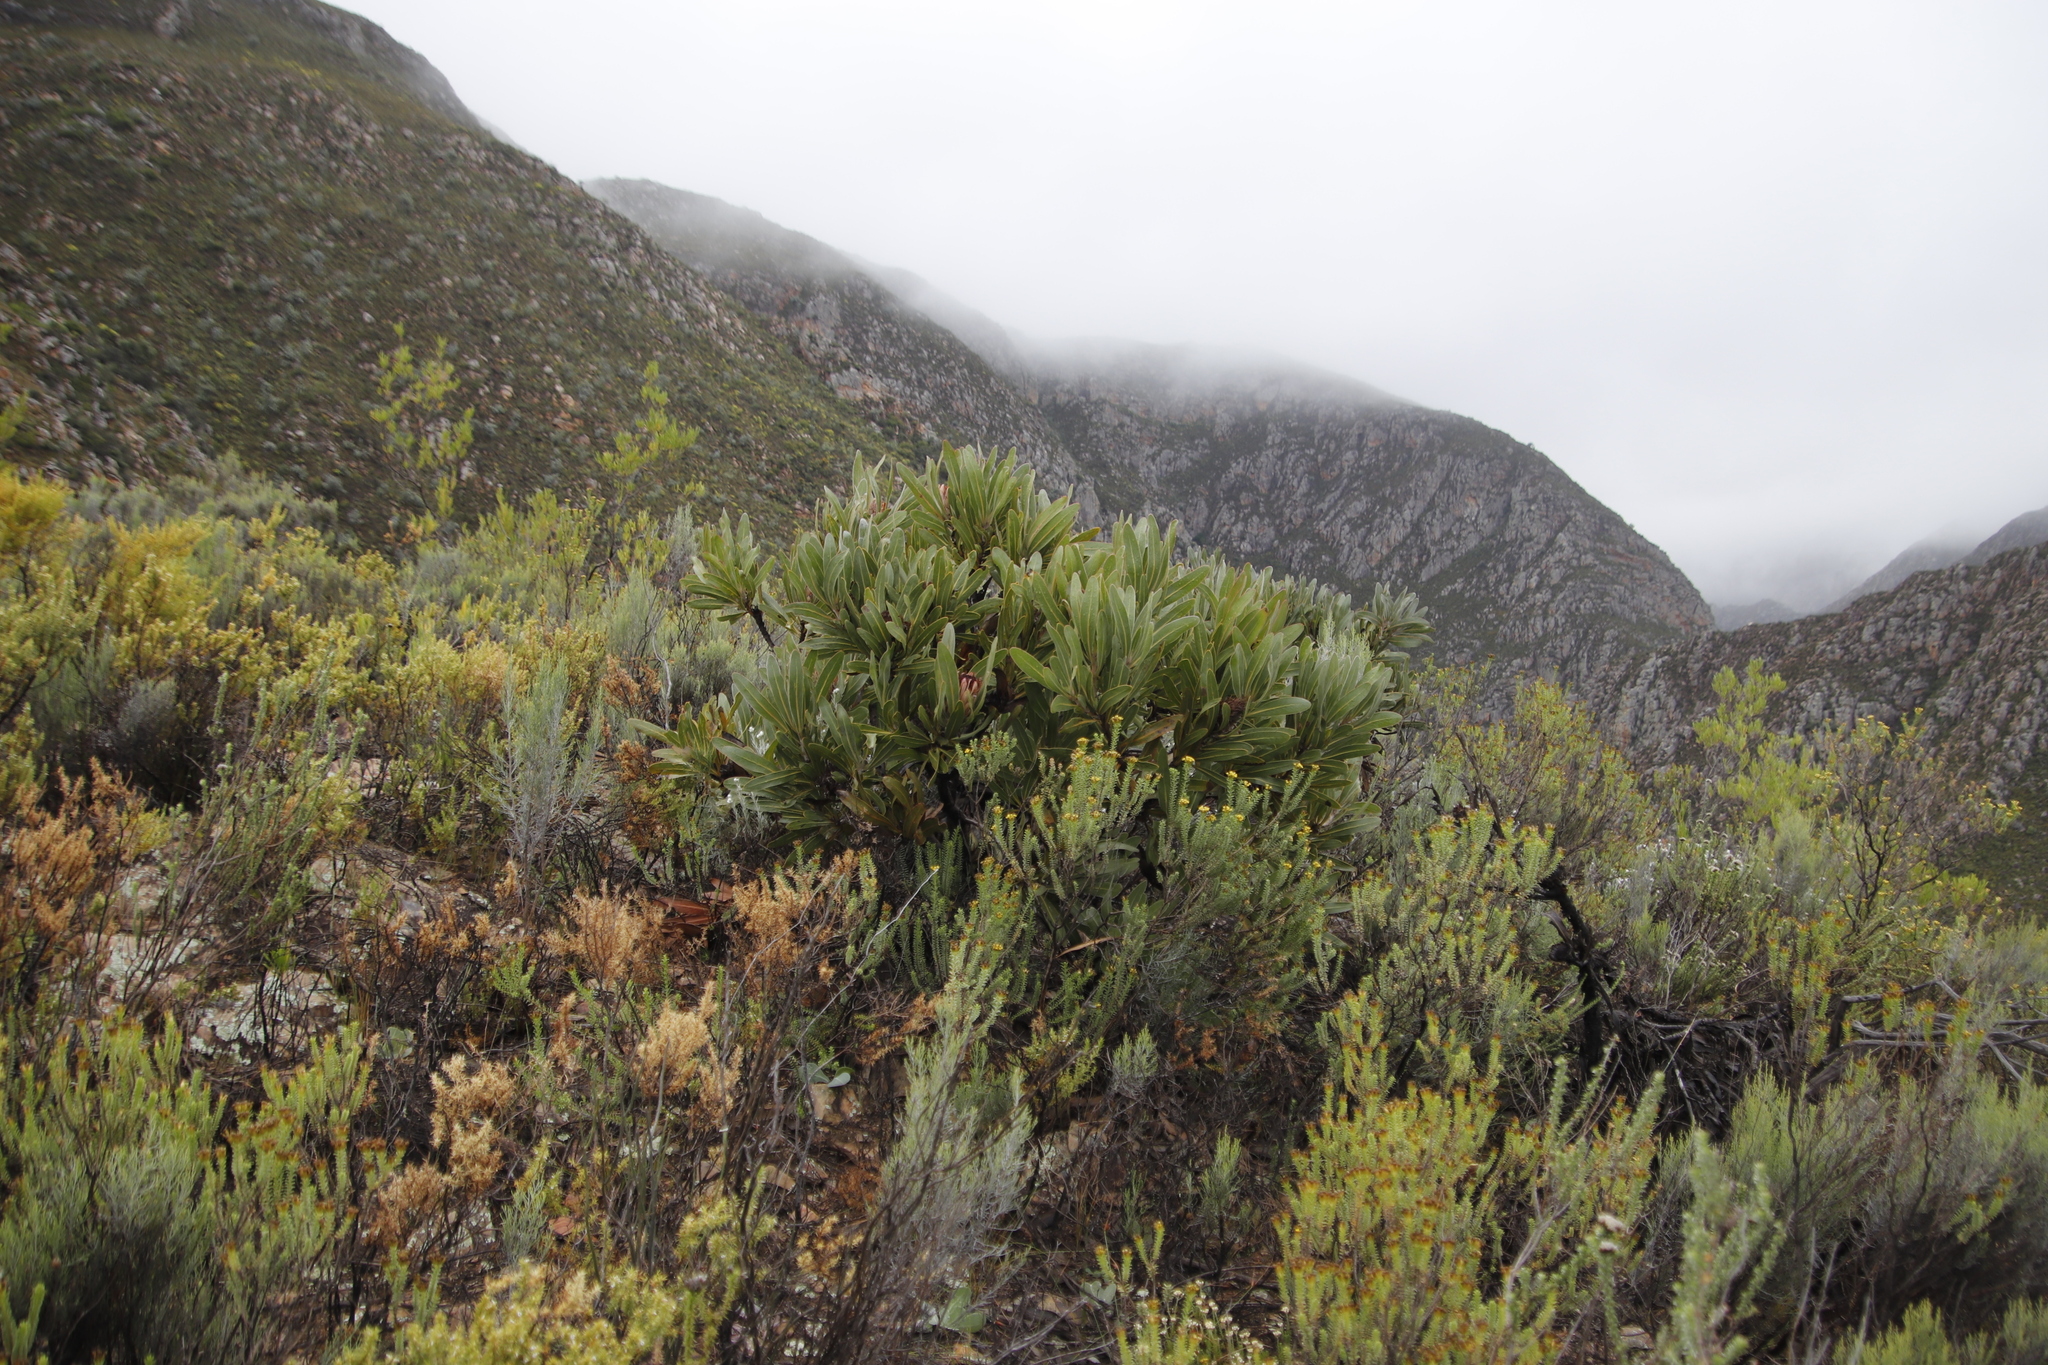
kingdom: Plantae
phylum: Tracheophyta
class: Magnoliopsida
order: Proteales
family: Proteaceae
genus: Protea
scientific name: Protea lorifolia
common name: Strap-leaved protea
